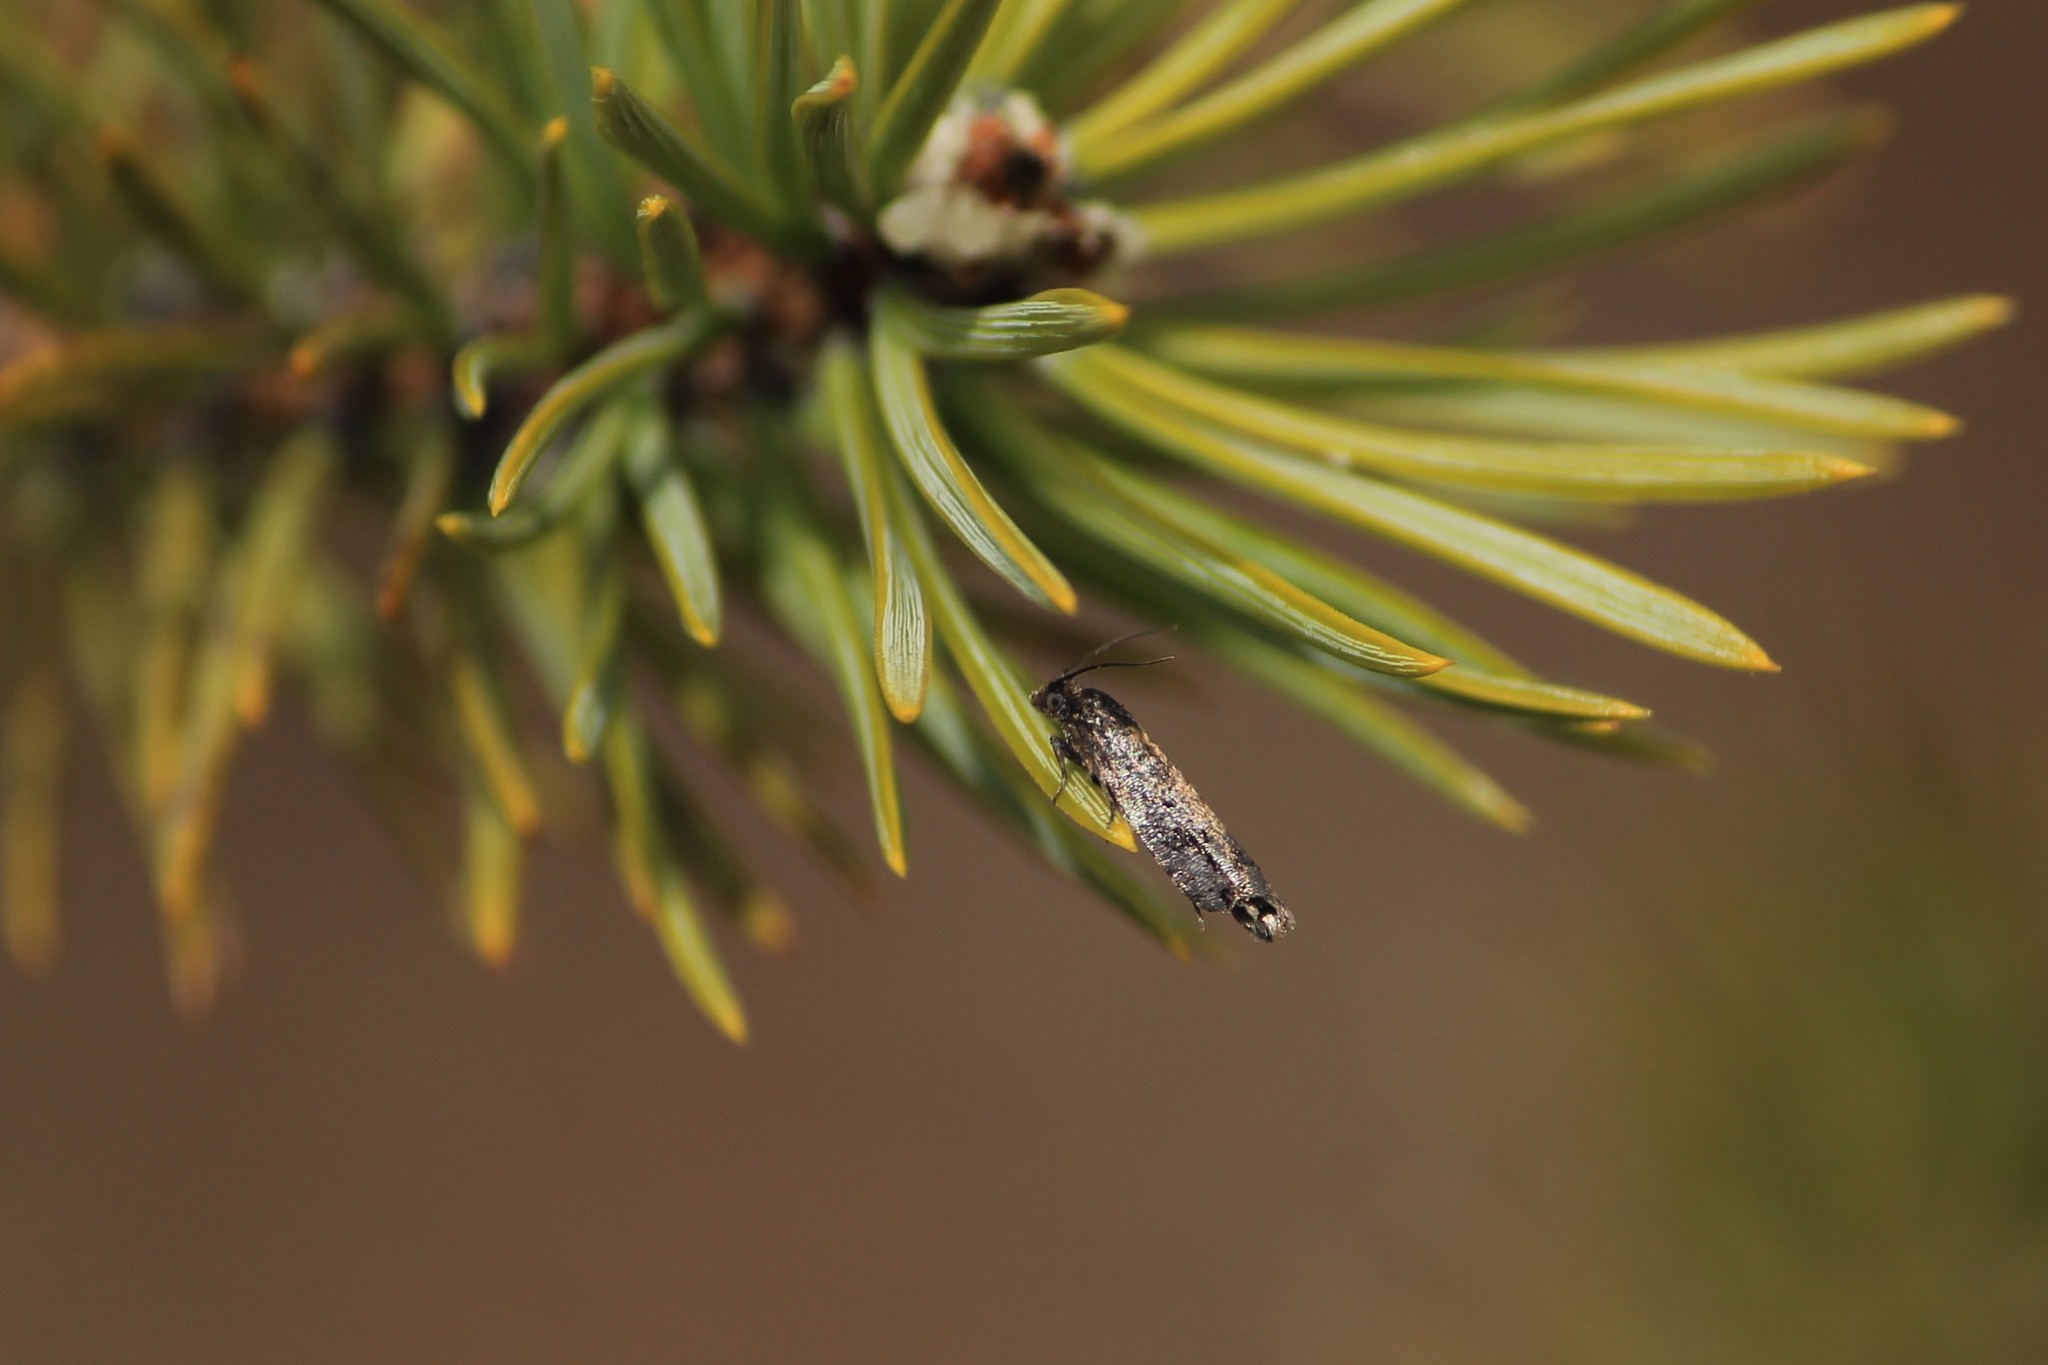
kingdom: Animalia
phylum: Arthropoda
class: Insecta
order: Lepidoptera
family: Tortricidae
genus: Epinotia
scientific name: Epinotia crenana
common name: Highland bell
